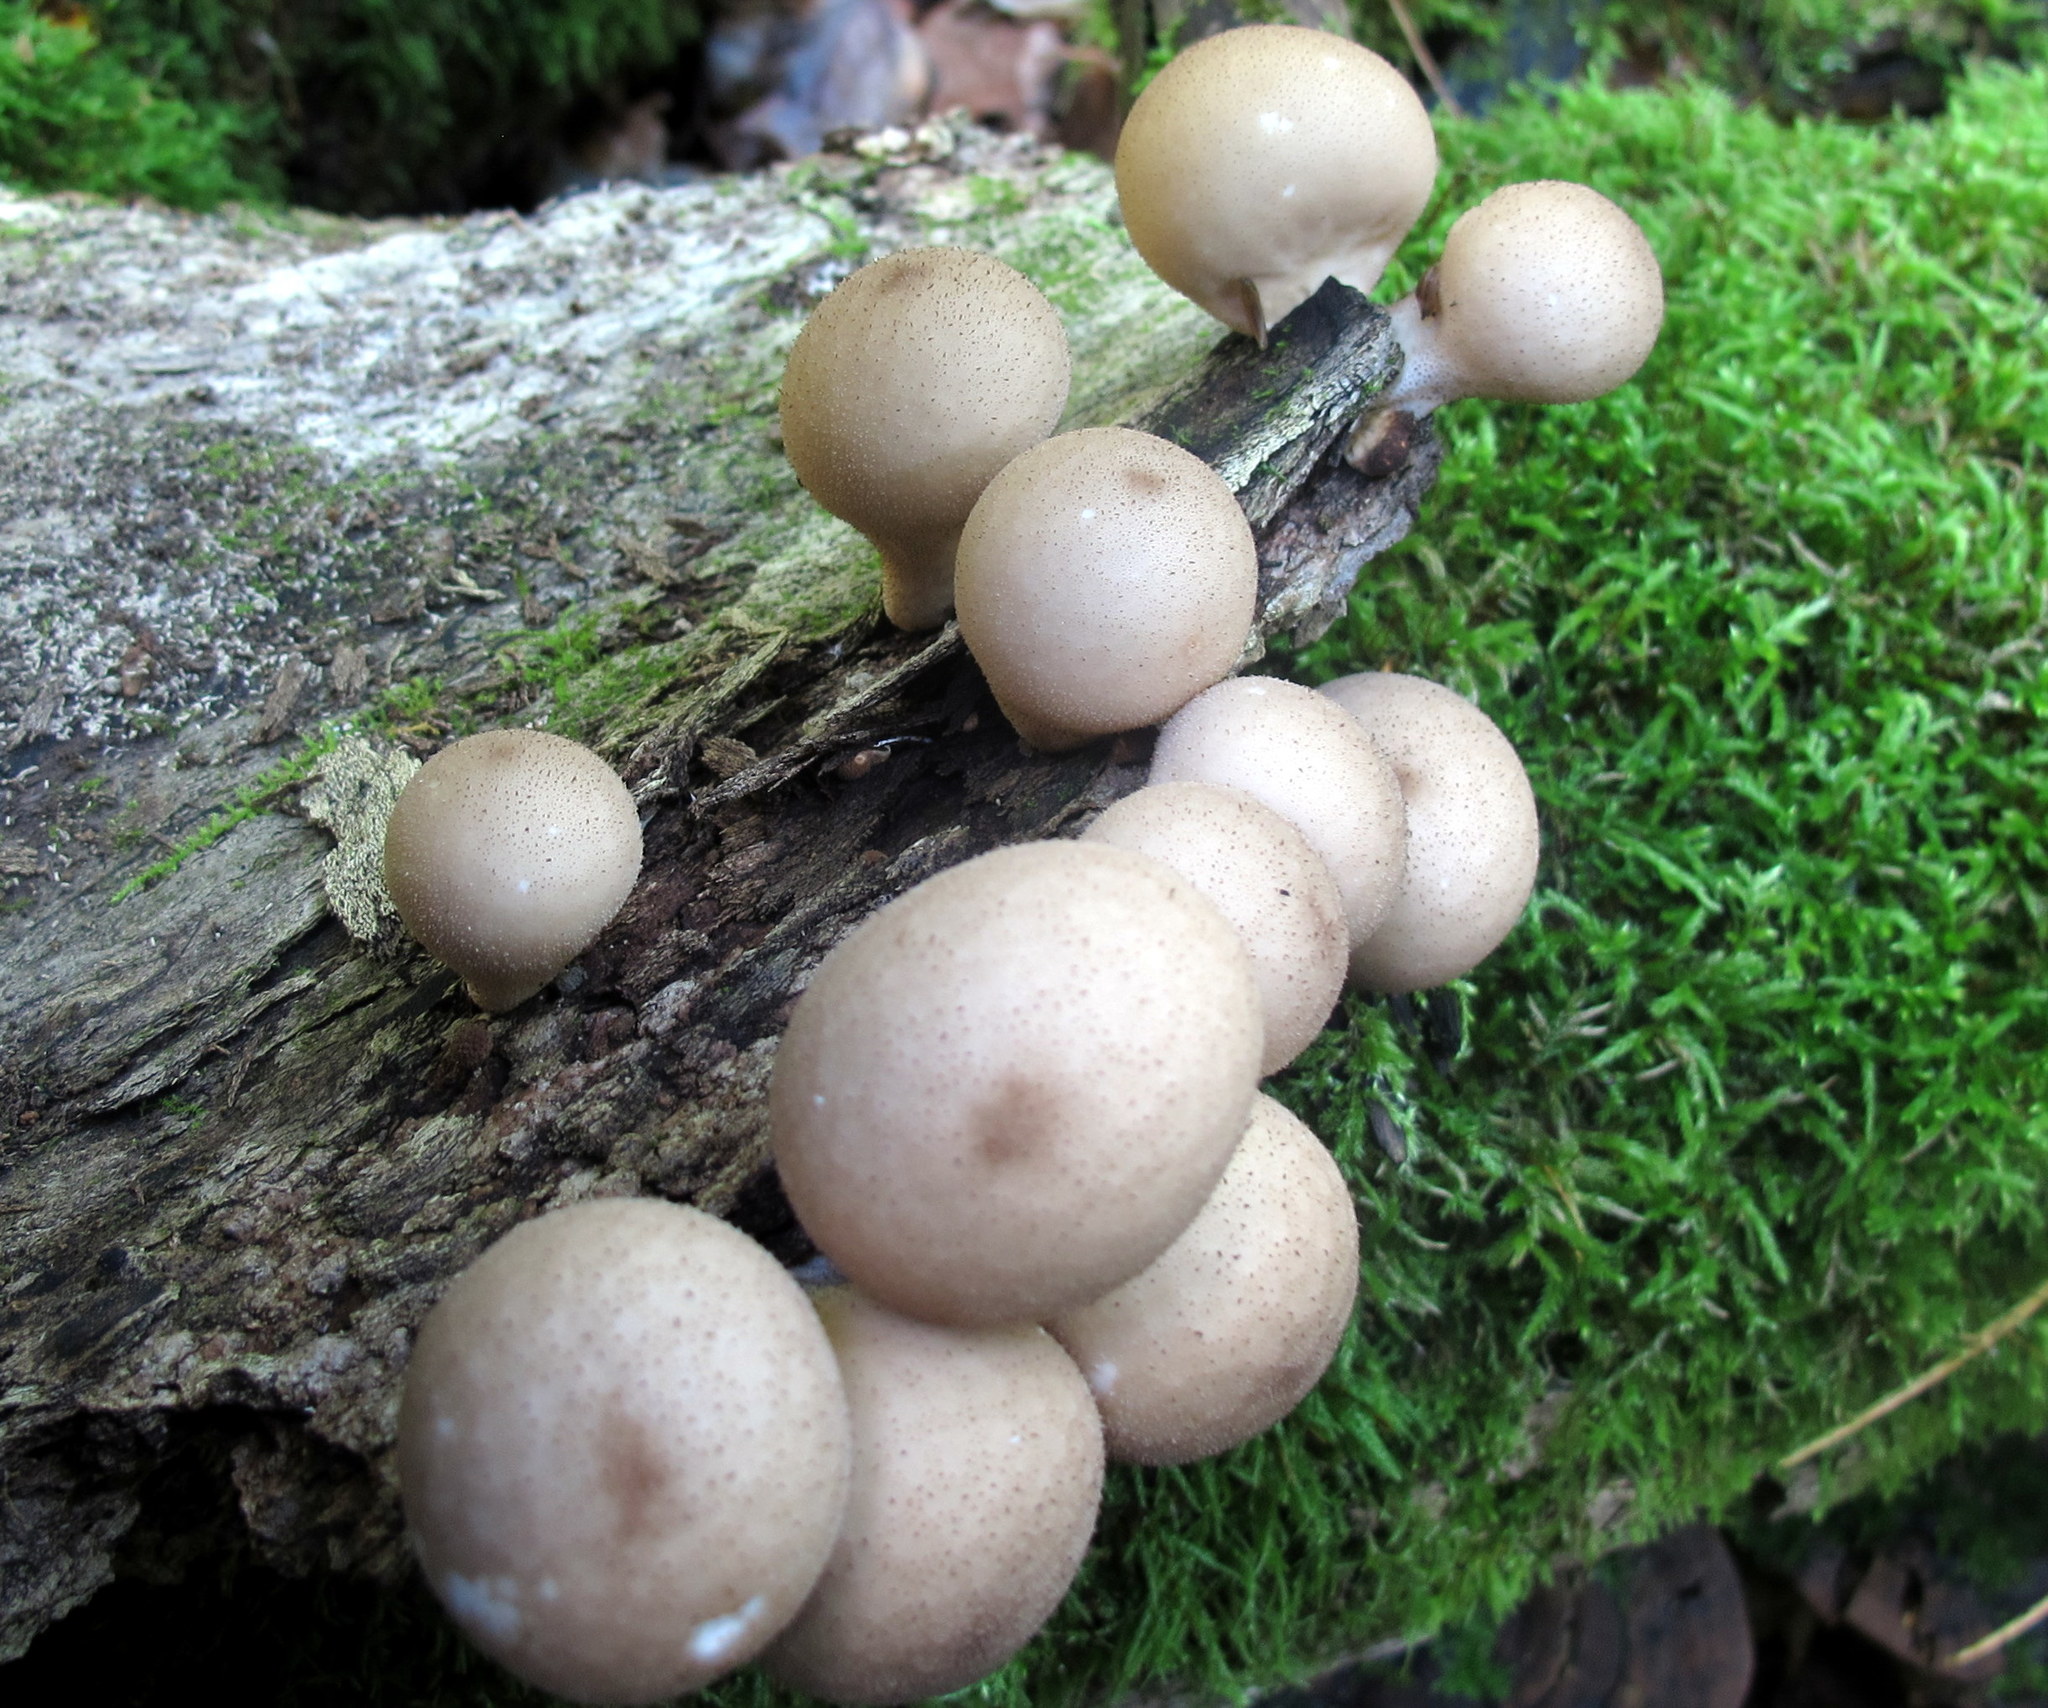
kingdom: Fungi
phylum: Basidiomycota
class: Agaricomycetes
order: Agaricales
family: Lycoperdaceae
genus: Apioperdon
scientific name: Apioperdon pyriforme
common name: Pear-shaped puffball
